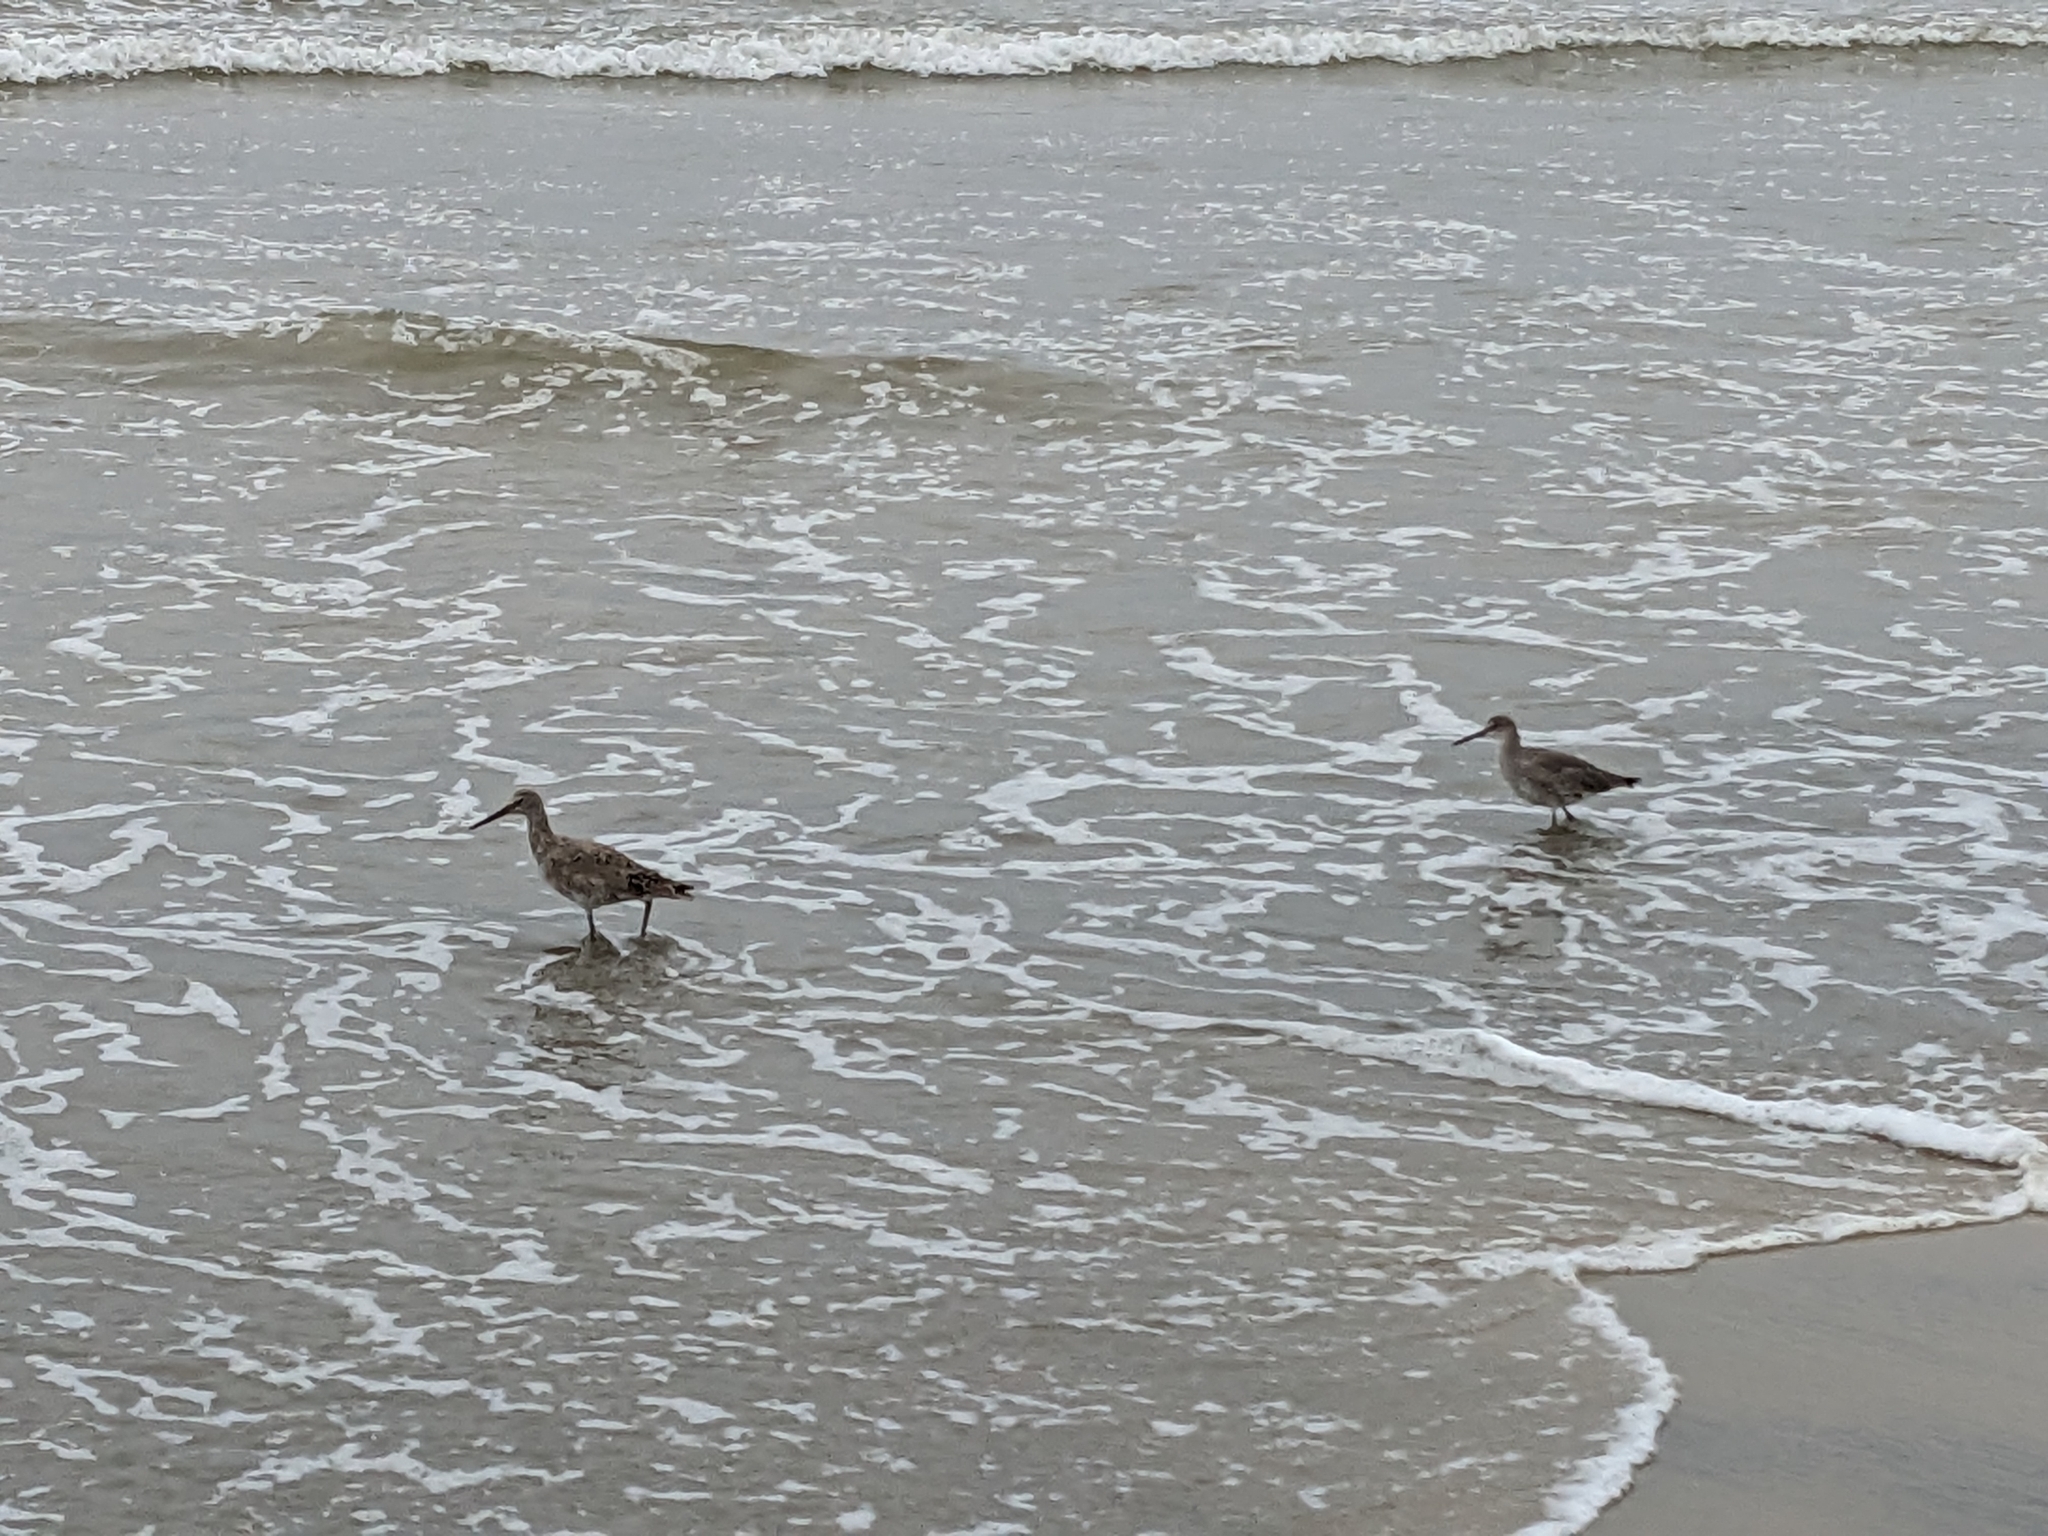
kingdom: Animalia
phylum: Chordata
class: Aves
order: Charadriiformes
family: Scolopacidae
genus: Tringa
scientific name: Tringa semipalmata
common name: Willet
